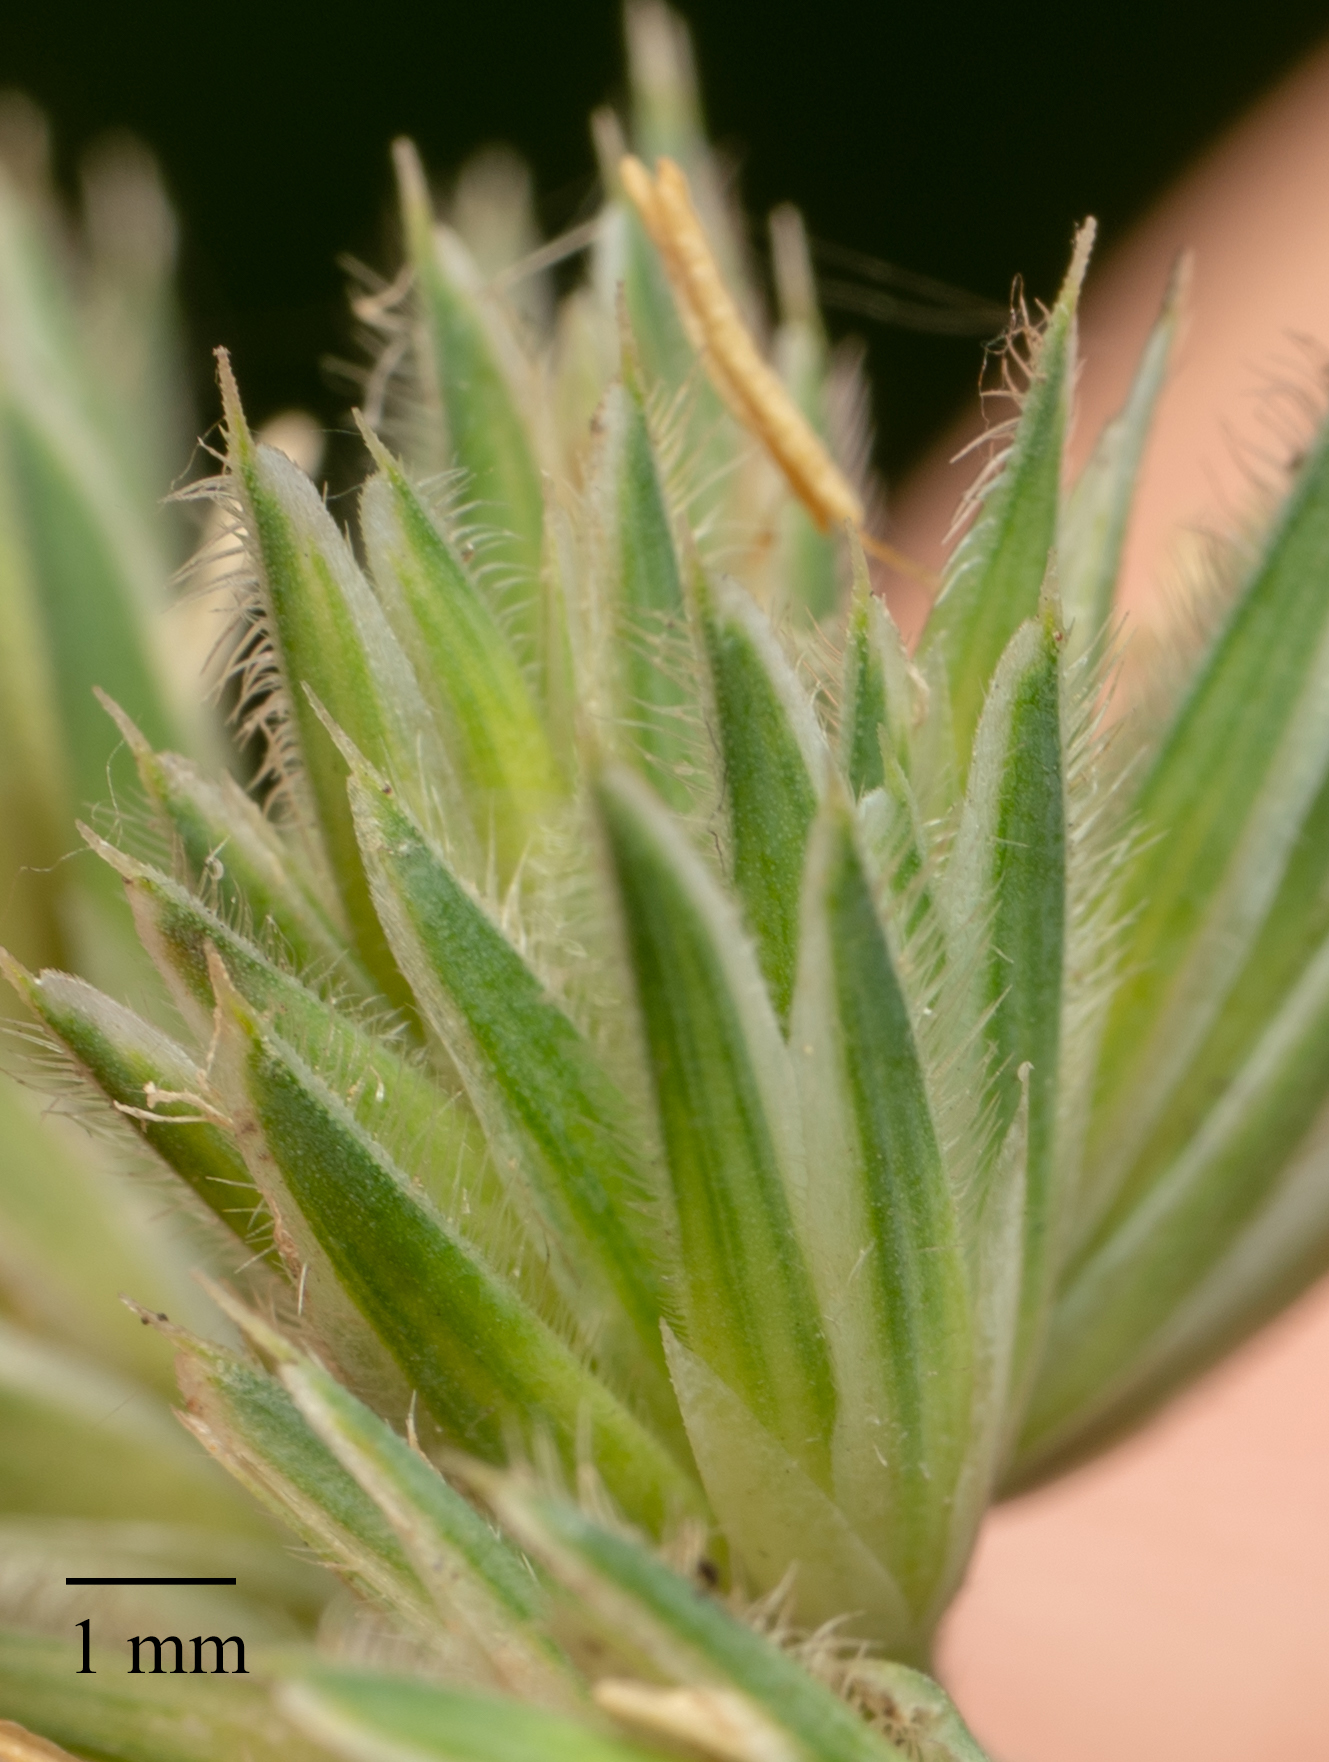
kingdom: Plantae
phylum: Tracheophyta
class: Liliopsida
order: Poales
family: Poaceae
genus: Dactylis
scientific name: Dactylis glomerata
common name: Orchardgrass
